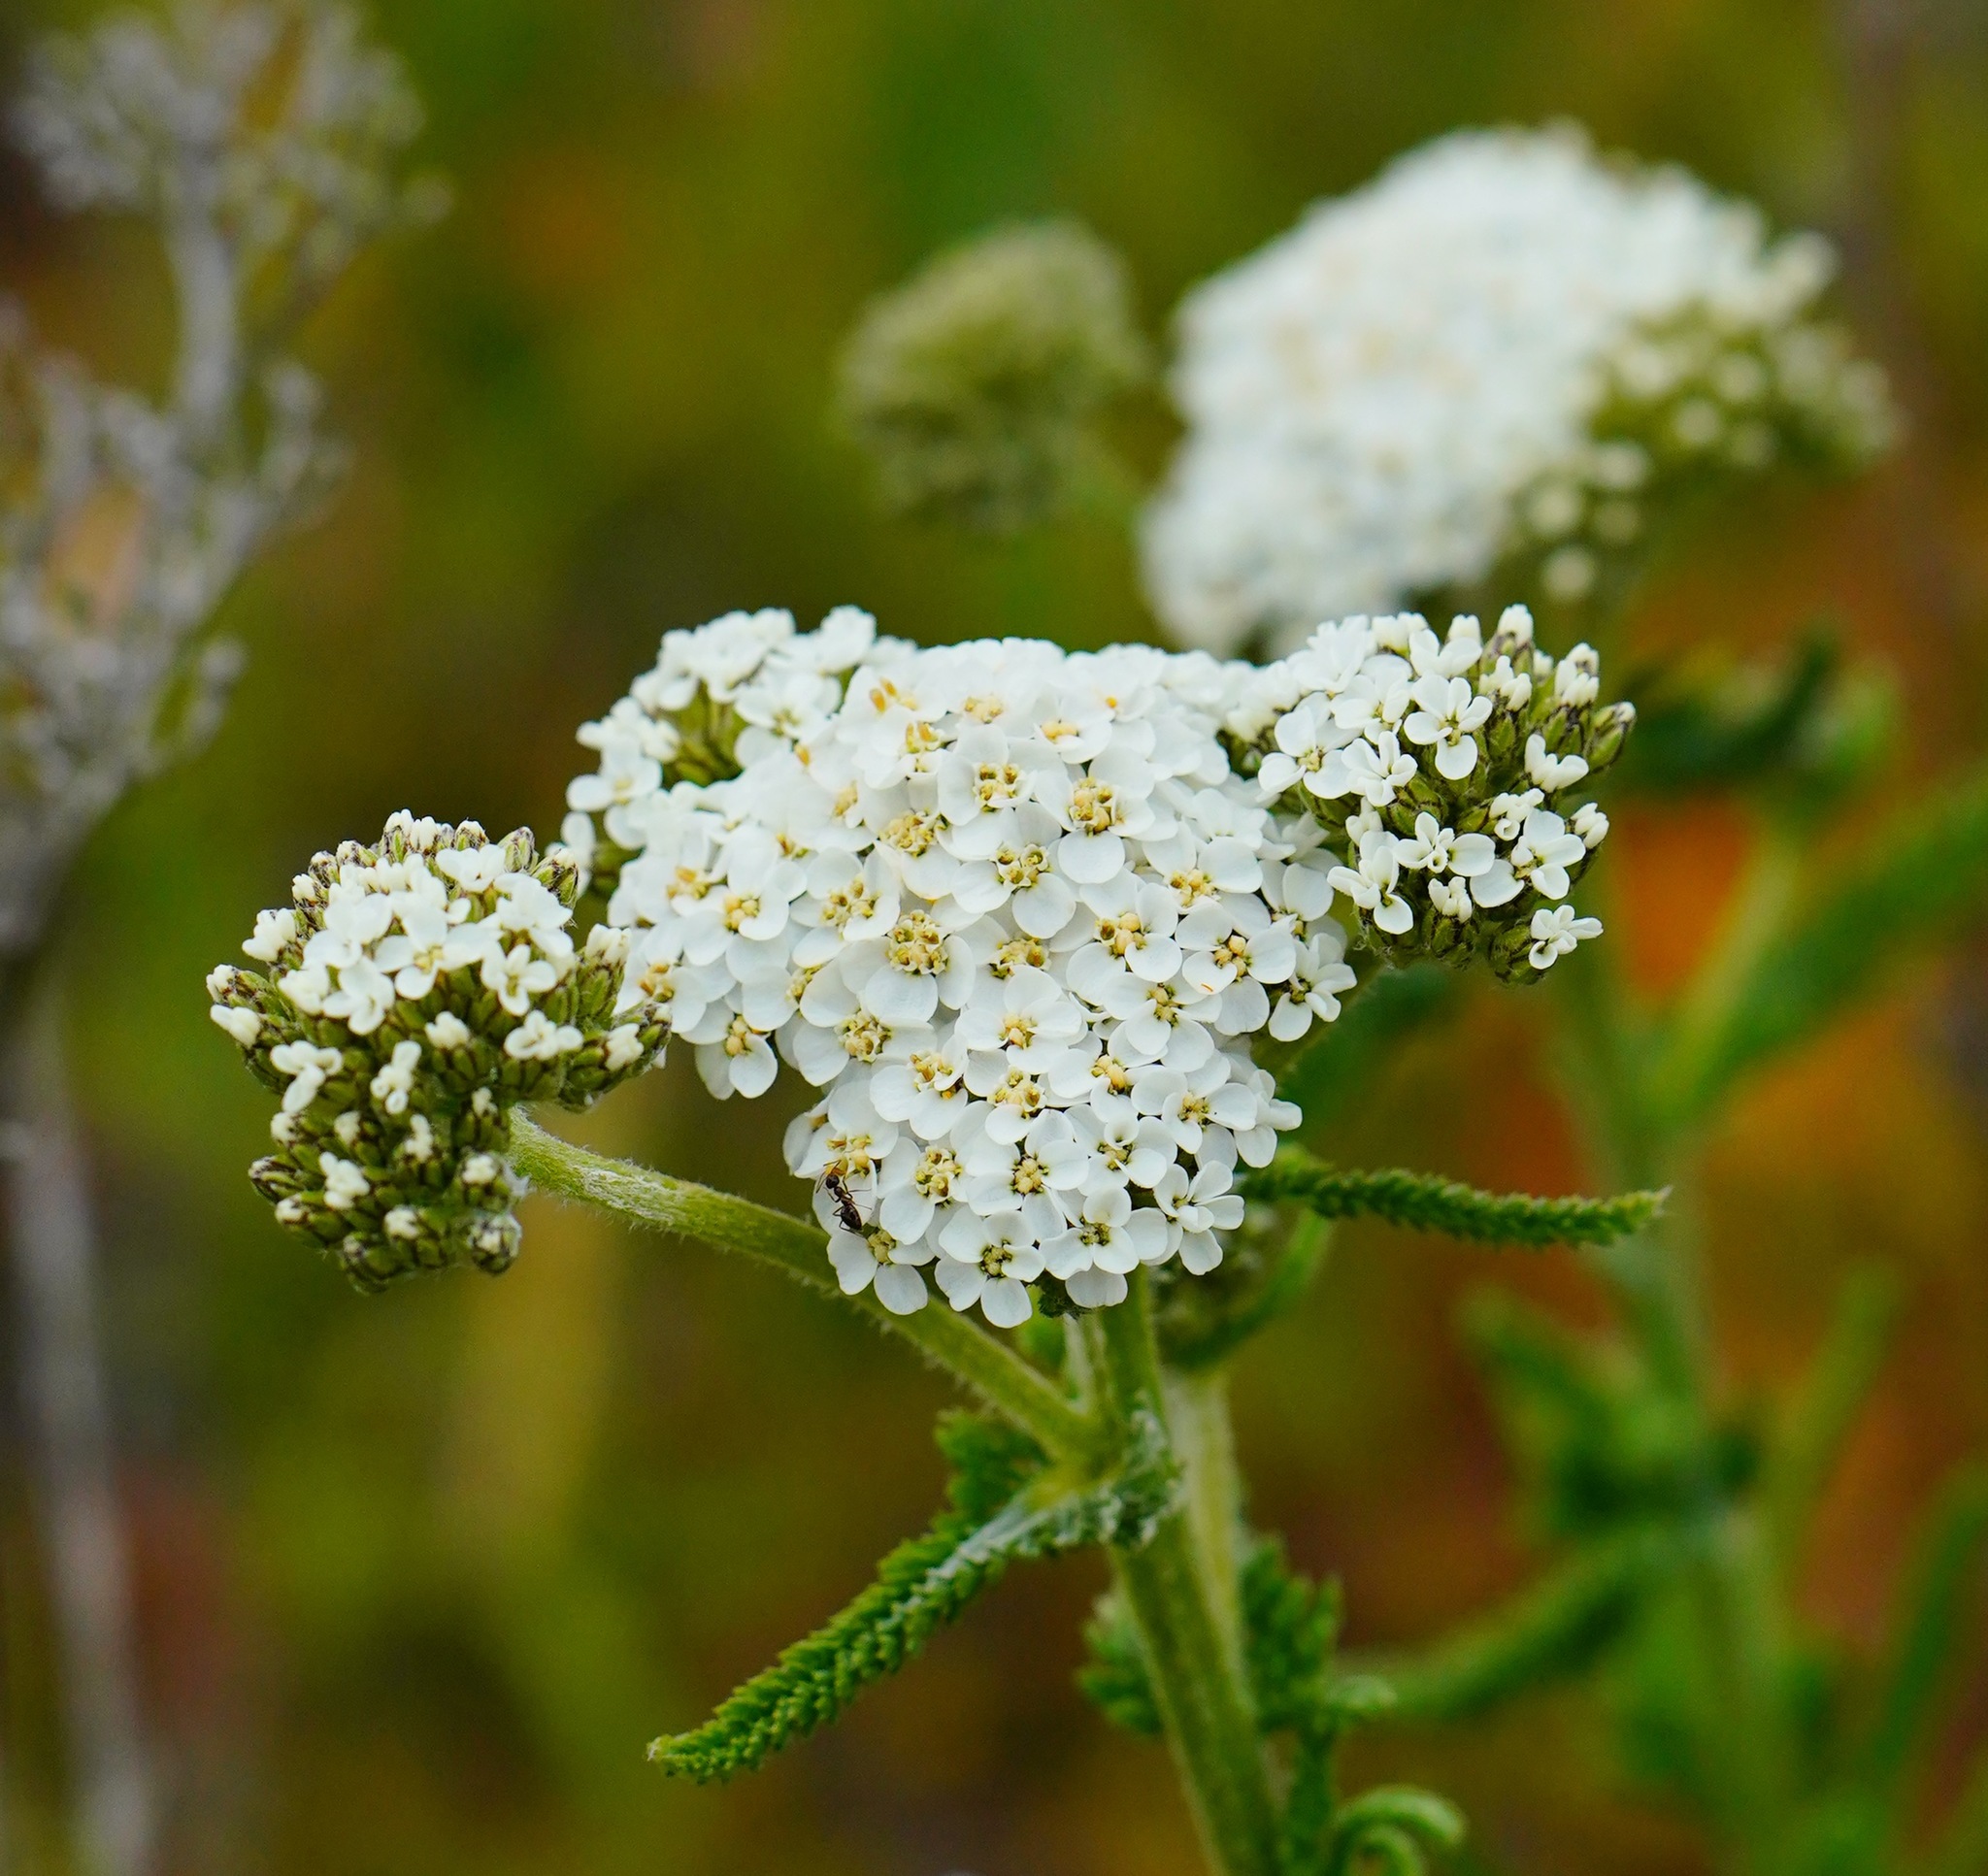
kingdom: Plantae
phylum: Tracheophyta
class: Magnoliopsida
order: Asterales
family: Asteraceae
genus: Achillea
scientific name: Achillea millefolium
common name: Yarrow
